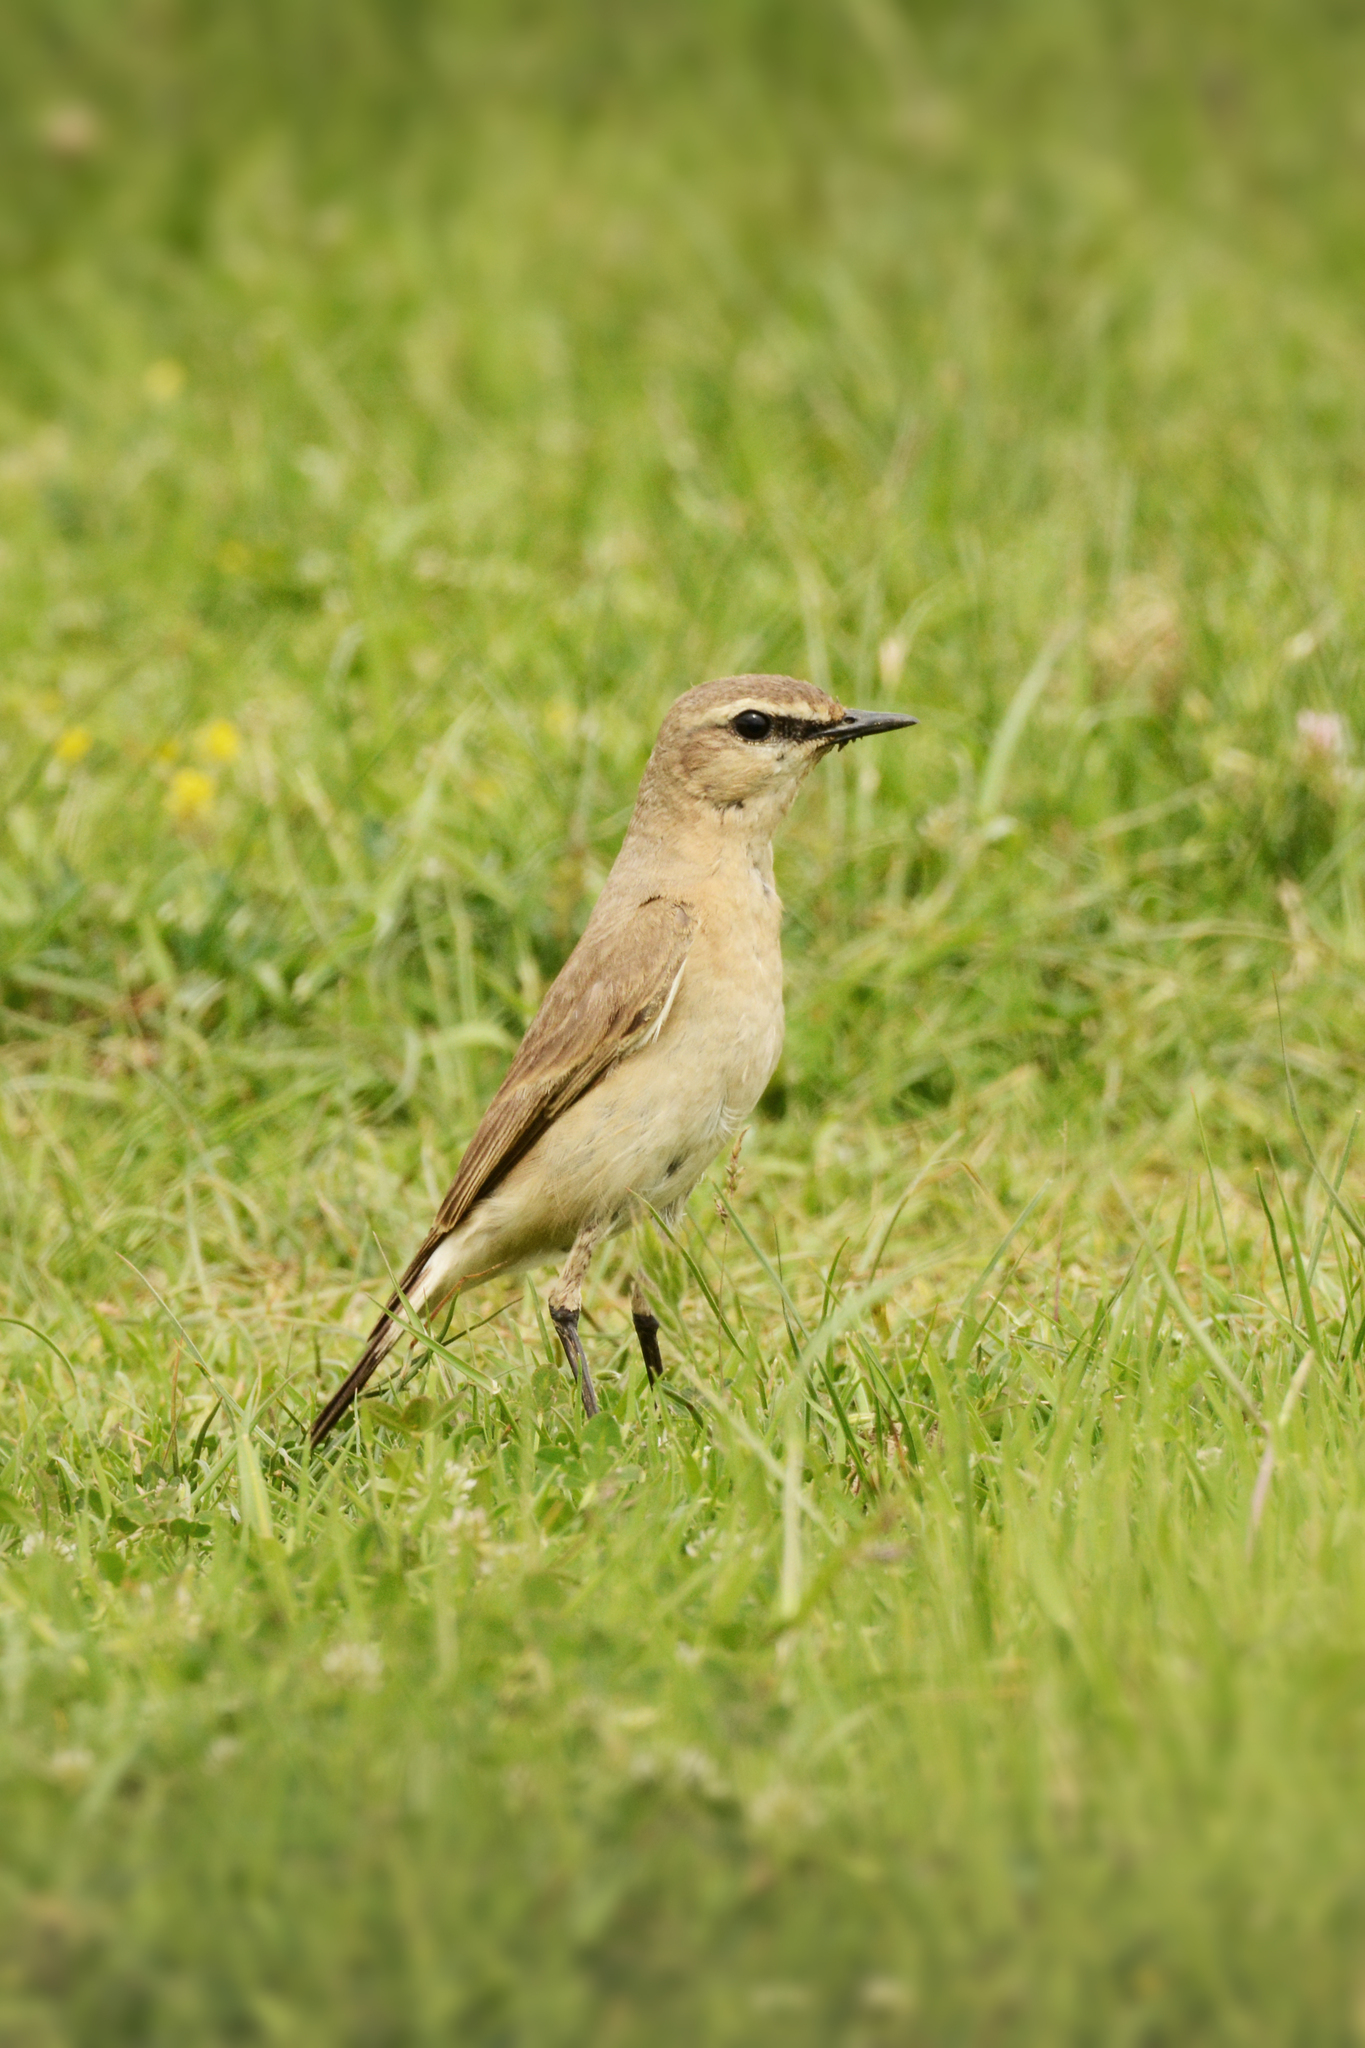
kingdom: Animalia
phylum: Chordata
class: Aves
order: Passeriformes
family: Muscicapidae
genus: Oenanthe
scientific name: Oenanthe isabellina
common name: Isabelline wheatear
